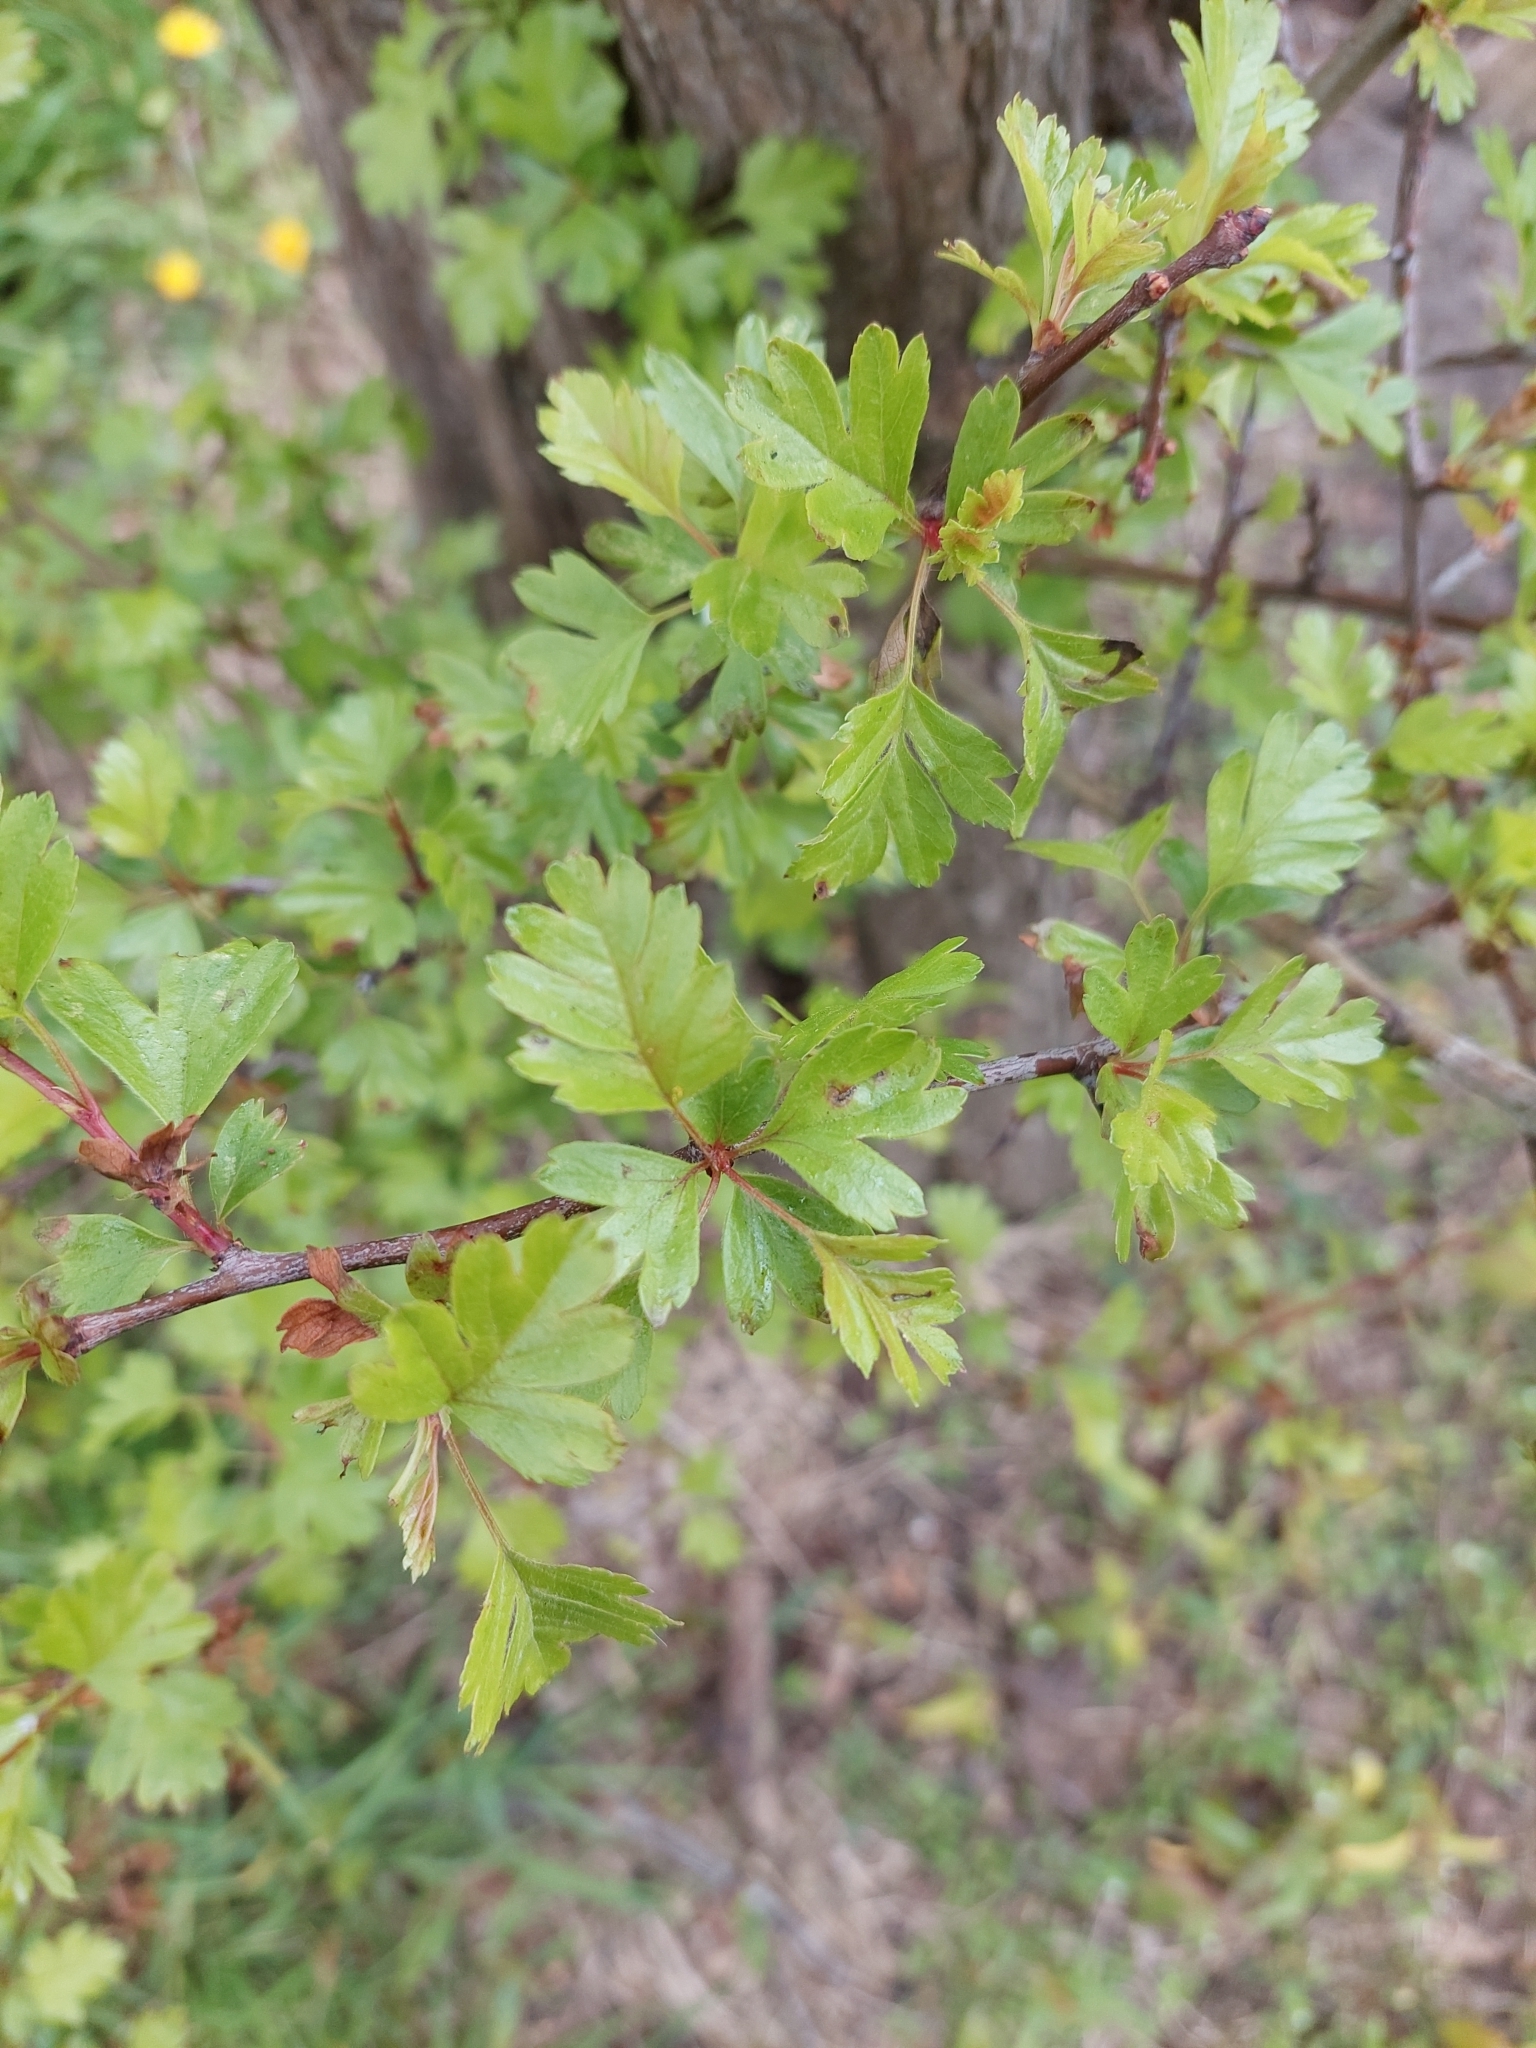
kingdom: Plantae
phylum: Tracheophyta
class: Magnoliopsida
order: Rosales
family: Rosaceae
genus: Crataegus
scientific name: Crataegus monogyna
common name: Hawthorn
